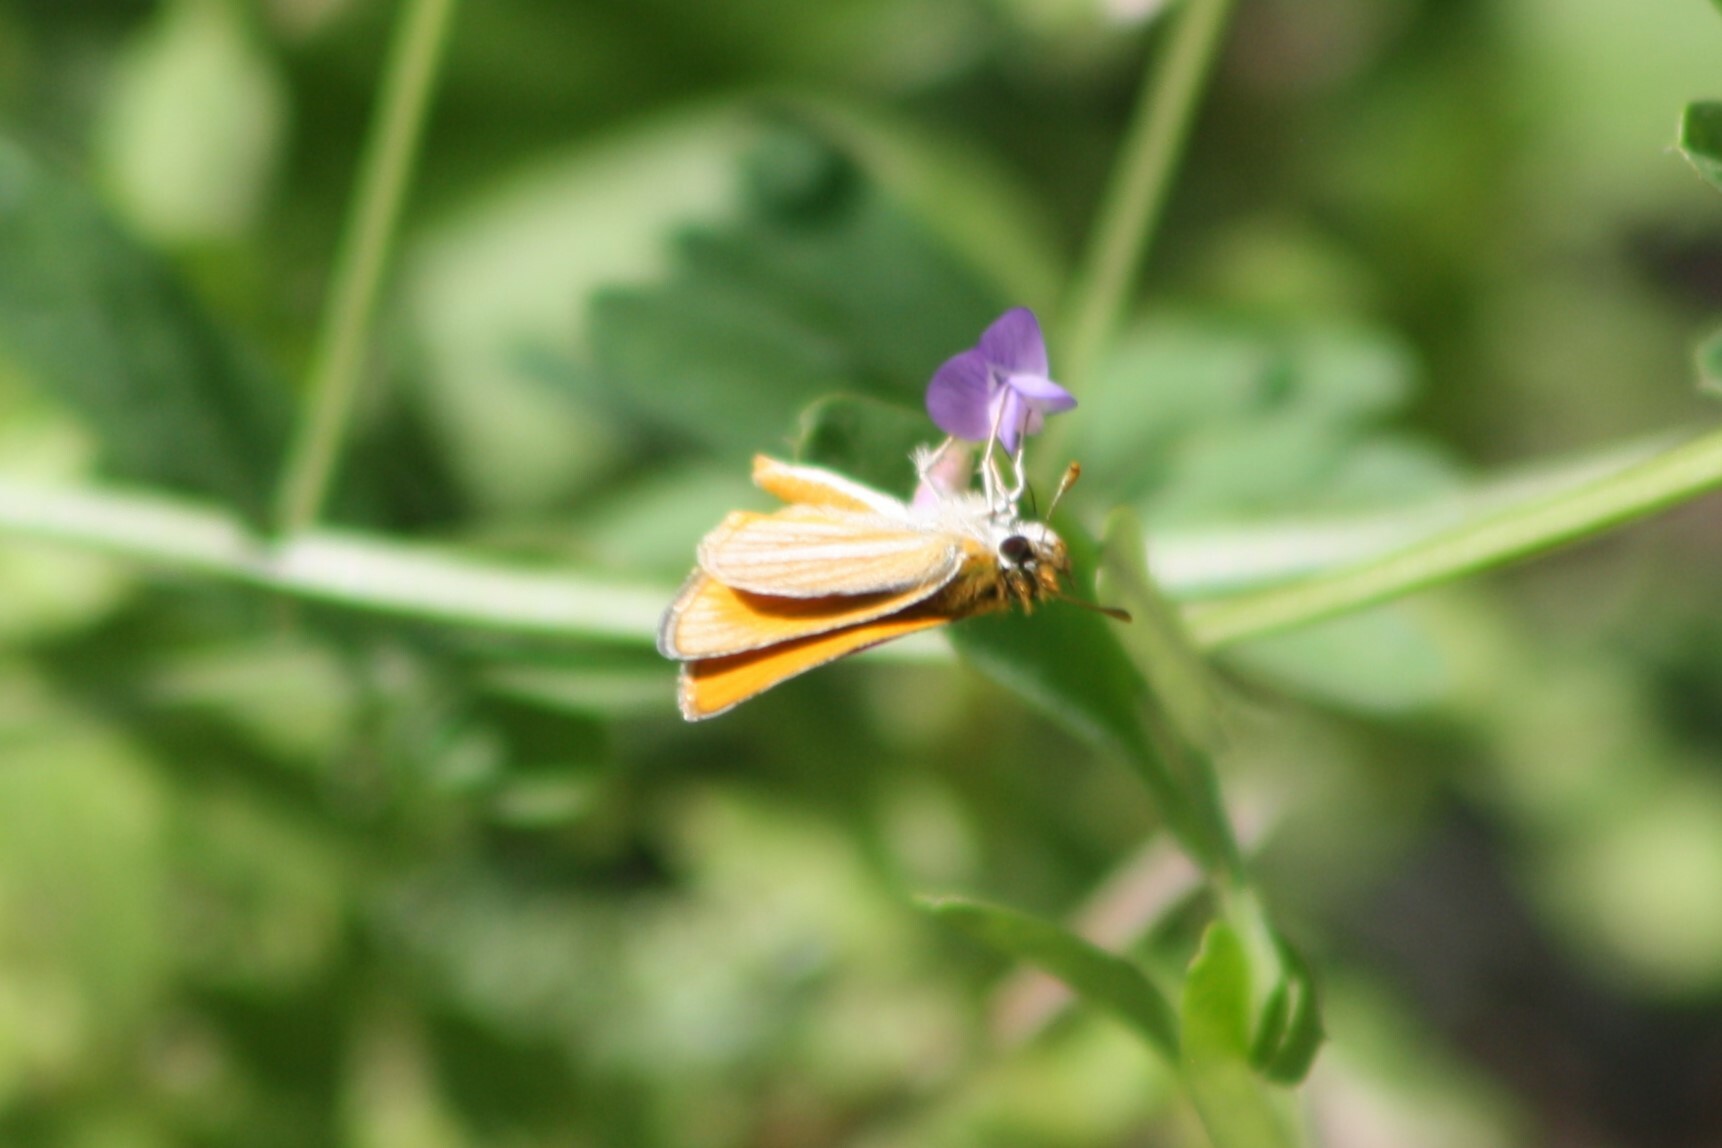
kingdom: Animalia
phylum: Arthropoda
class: Insecta
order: Lepidoptera
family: Hesperiidae
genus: Copaeodes
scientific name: Copaeodes minima
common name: Southern skipperling
